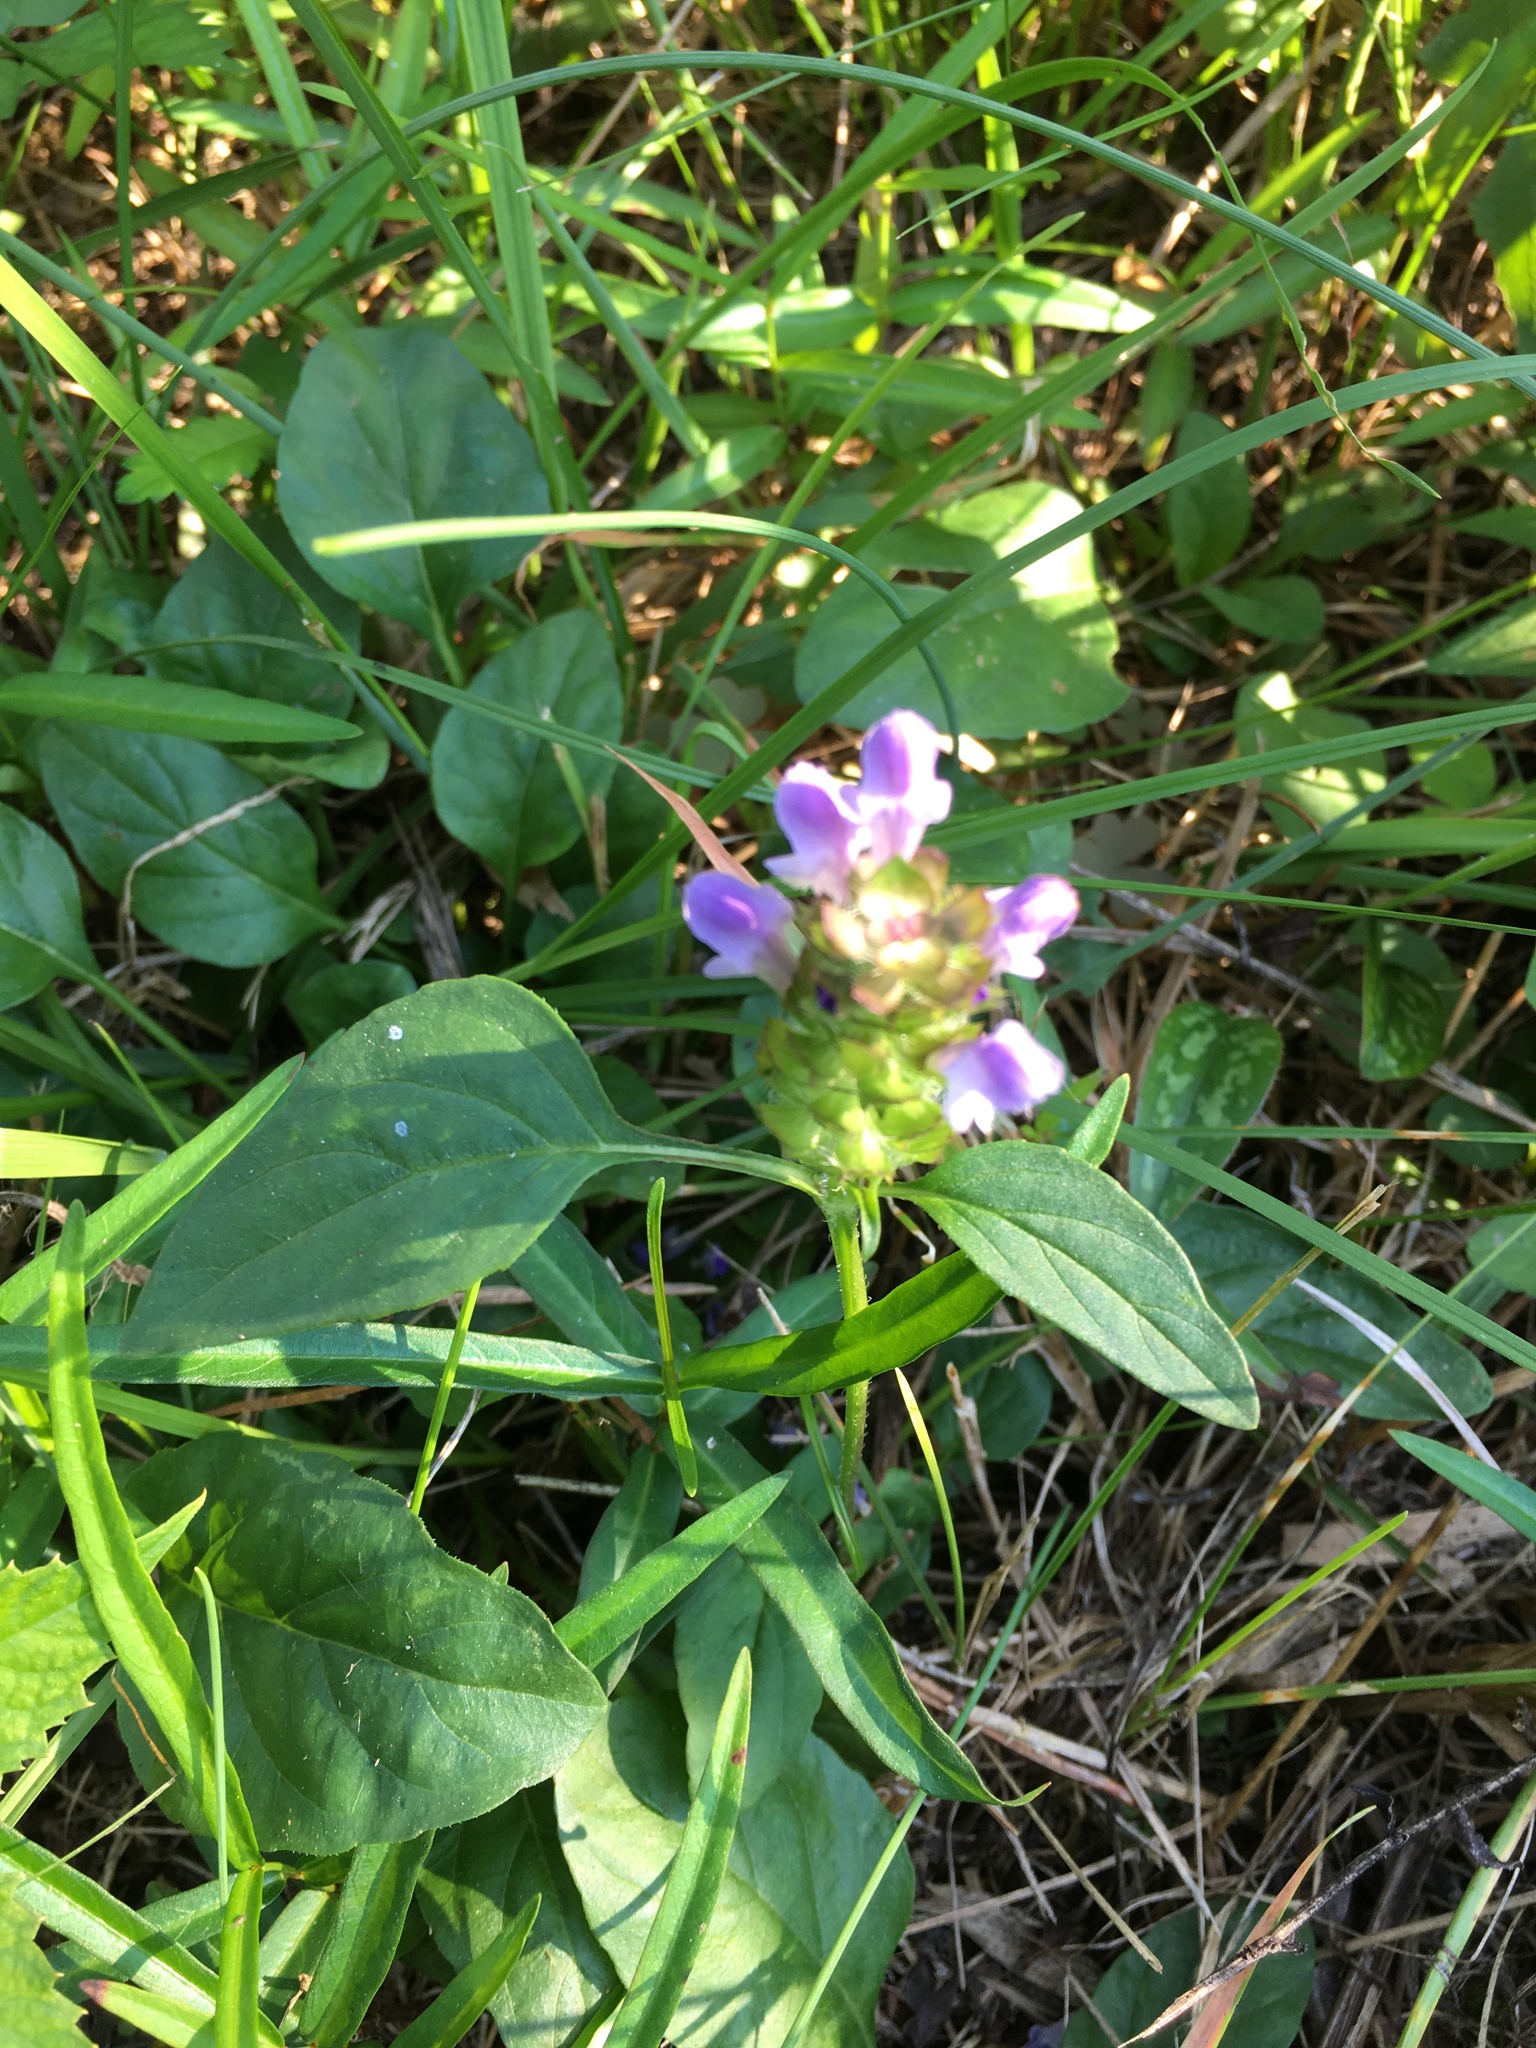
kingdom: Plantae
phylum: Tracheophyta
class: Magnoliopsida
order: Lamiales
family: Lamiaceae
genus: Prunella
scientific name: Prunella vulgaris
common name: Heal-all
